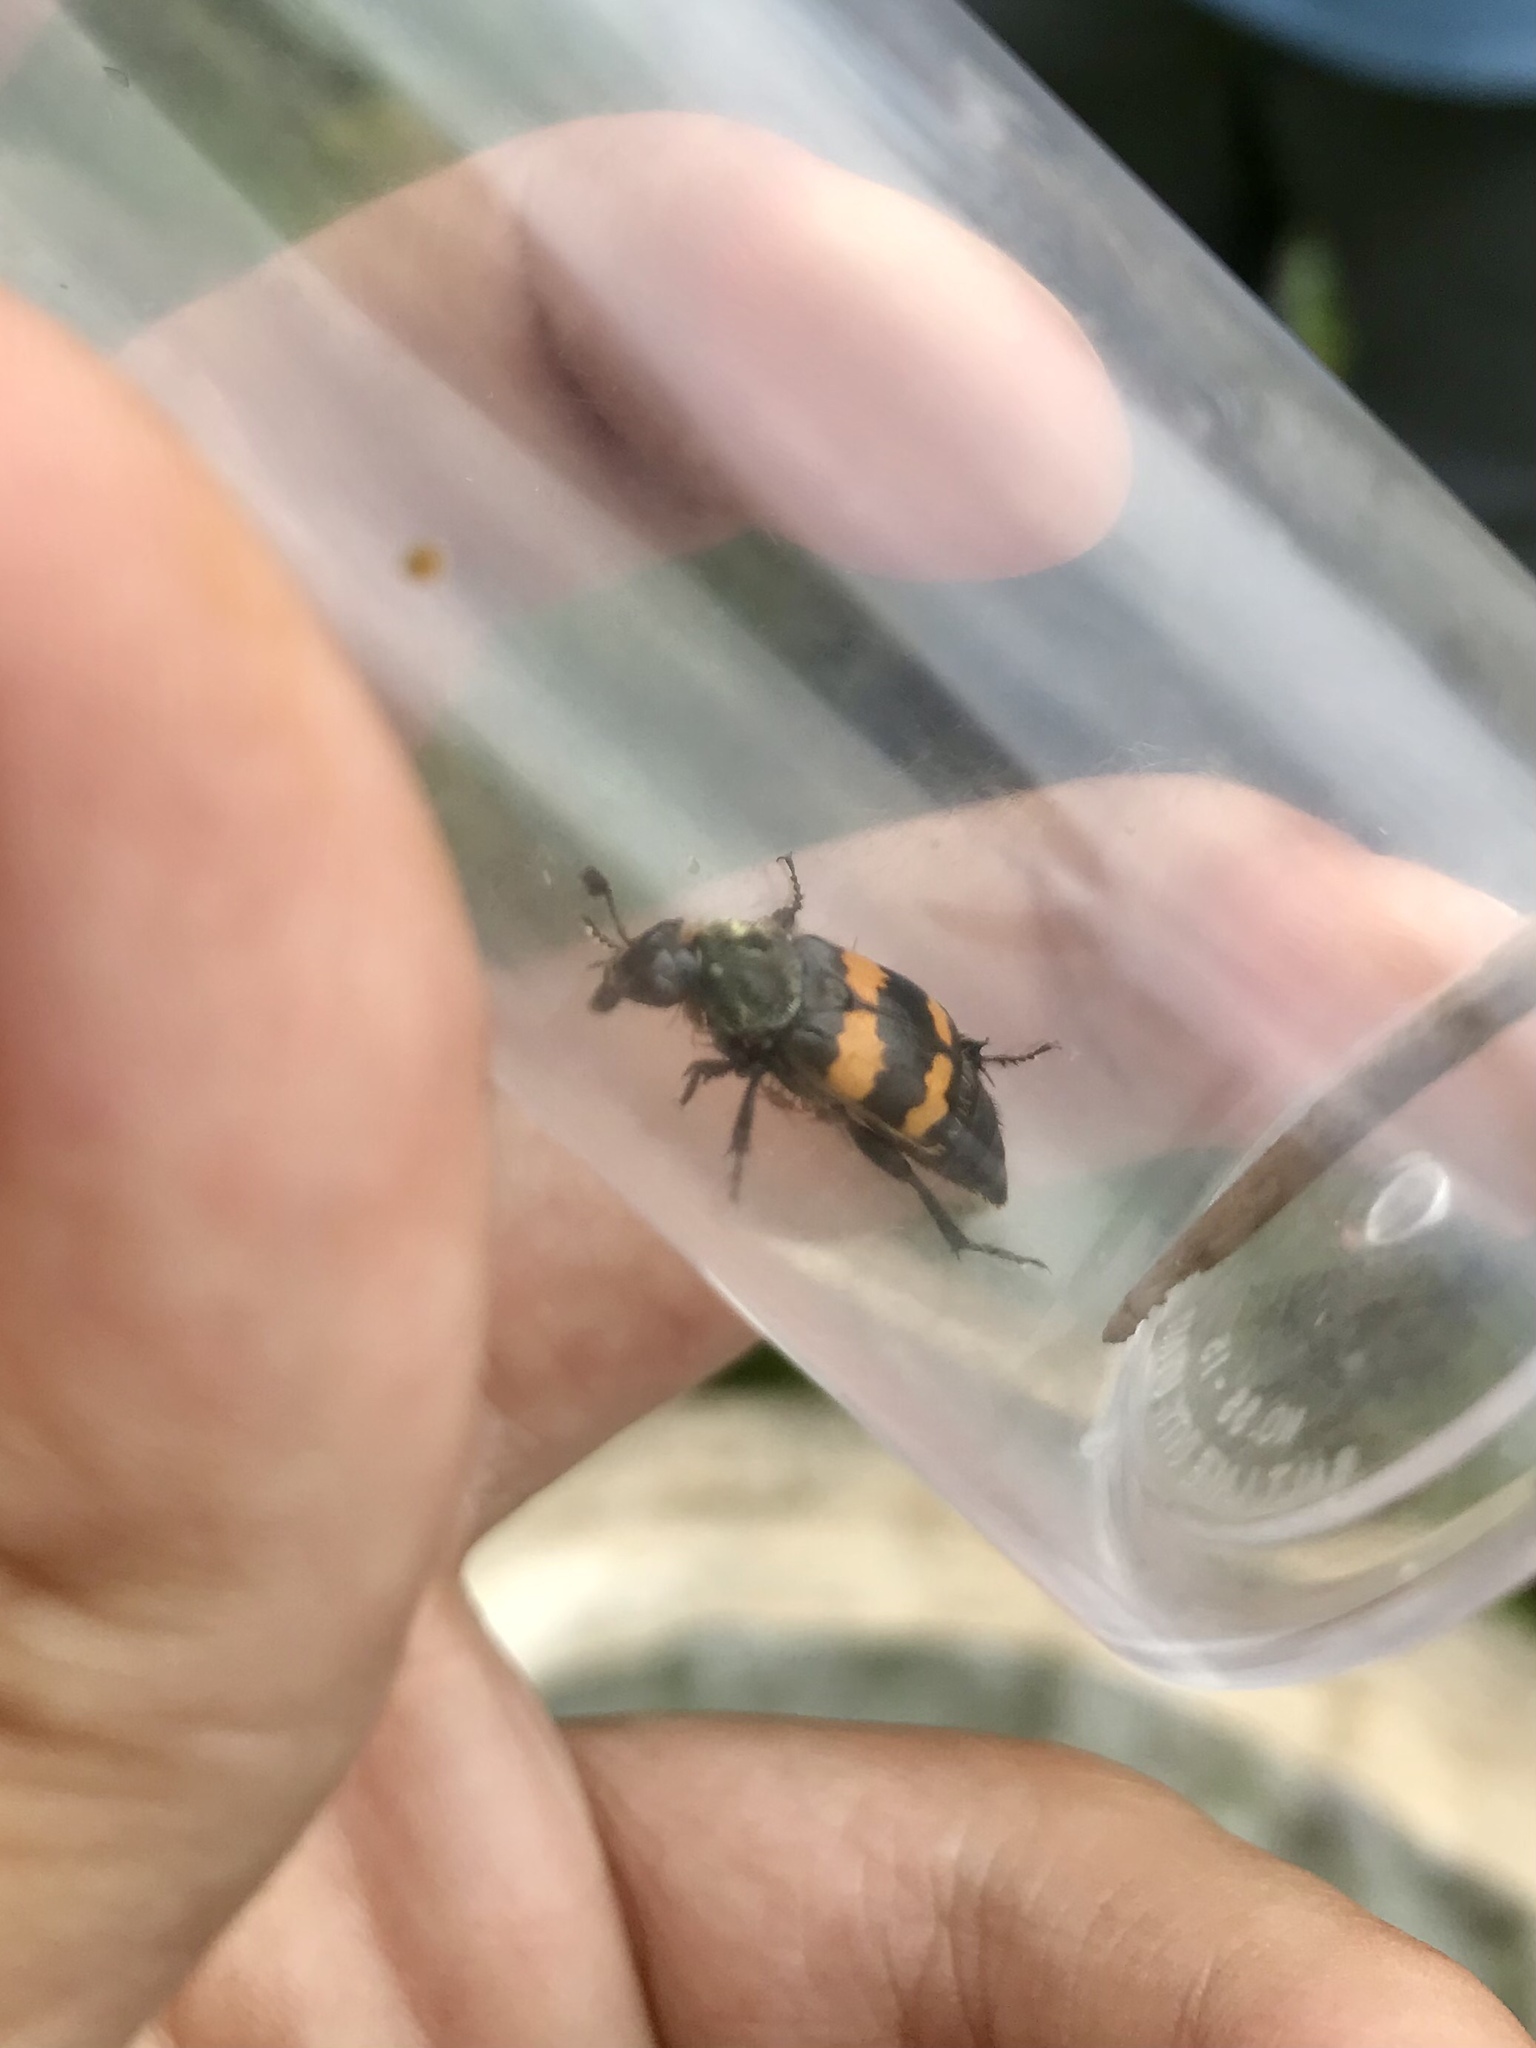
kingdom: Animalia
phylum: Arthropoda
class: Insecta
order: Coleoptera
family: Staphylinidae
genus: Nicrophorus
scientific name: Nicrophorus tomentosus
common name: Tomentose burying beetle
